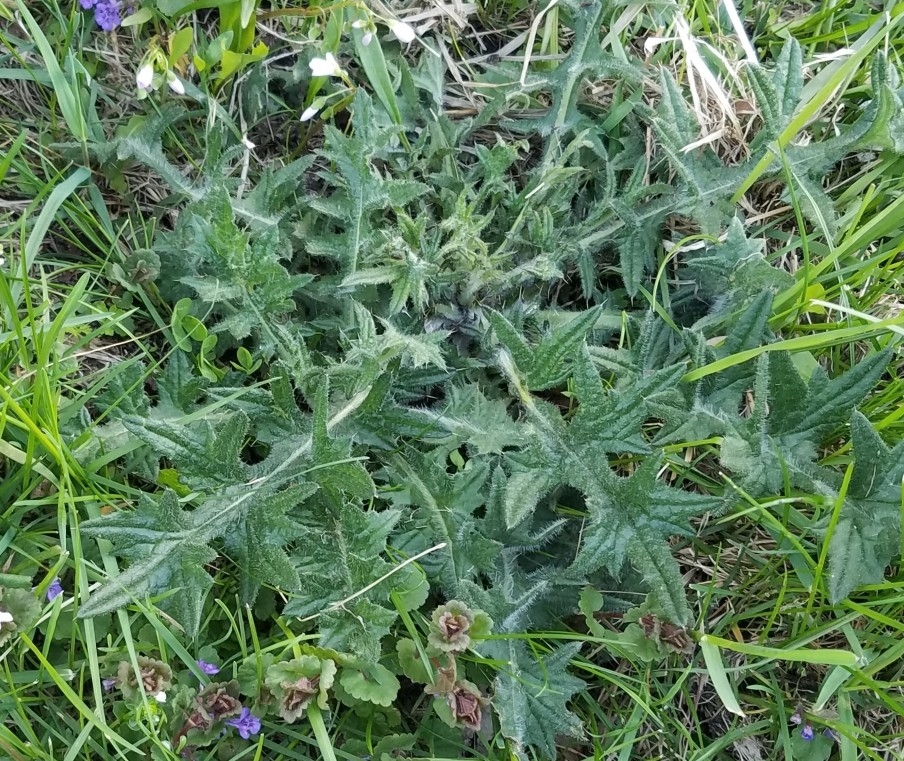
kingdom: Plantae
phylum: Tracheophyta
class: Magnoliopsida
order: Asterales
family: Asteraceae
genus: Cirsium
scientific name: Cirsium vulgare
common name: Bull thistle
